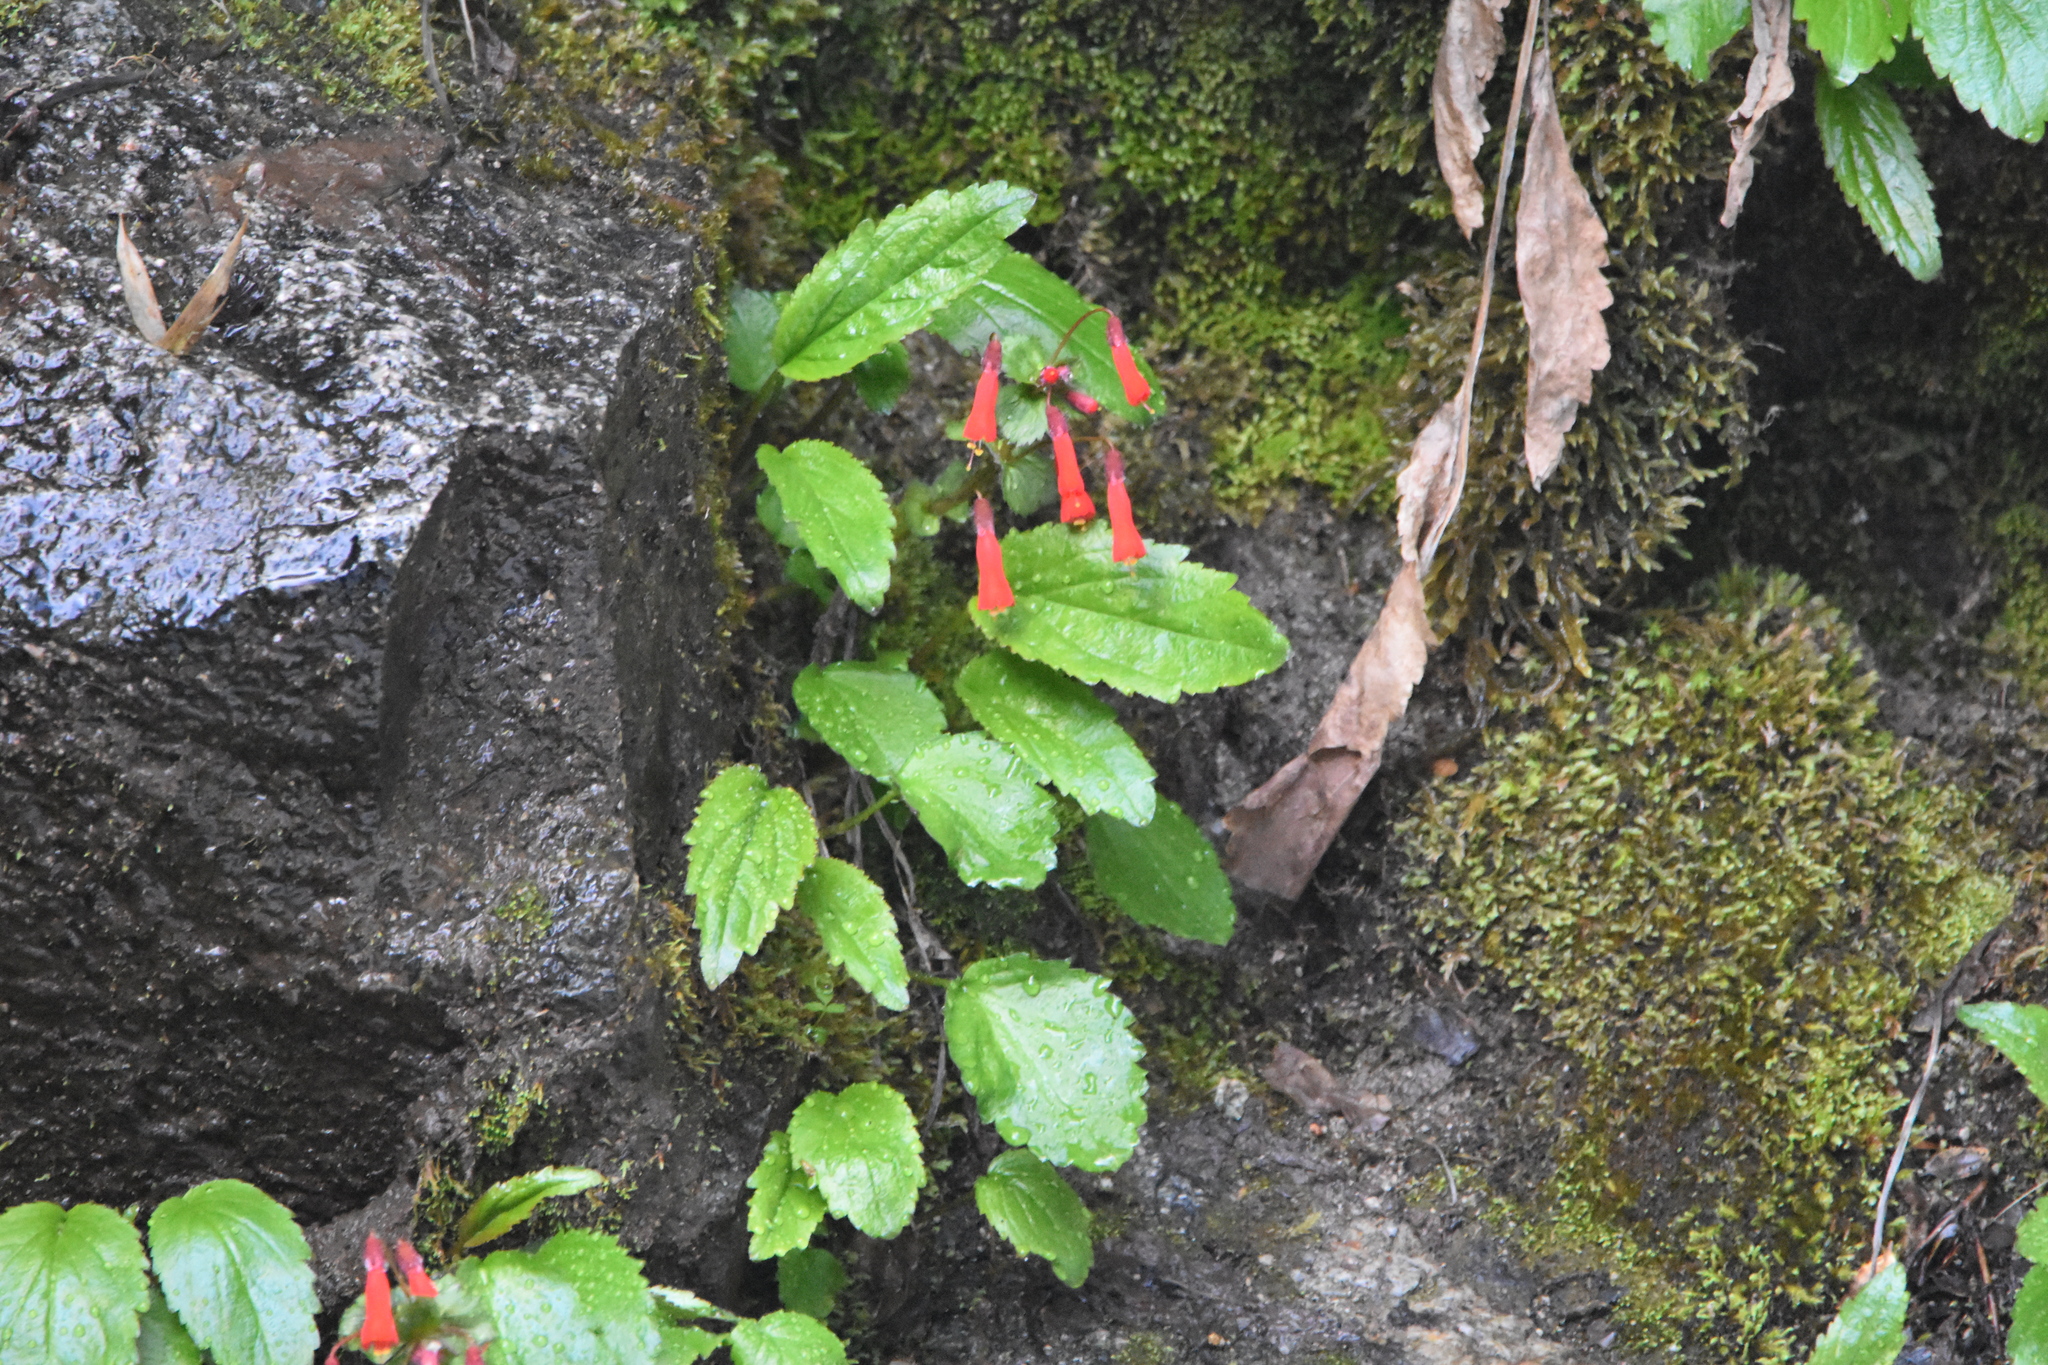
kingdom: Plantae
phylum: Tracheophyta
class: Magnoliopsida
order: Lamiales
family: Plantaginaceae
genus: Ourisia
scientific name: Ourisia ruellioides
